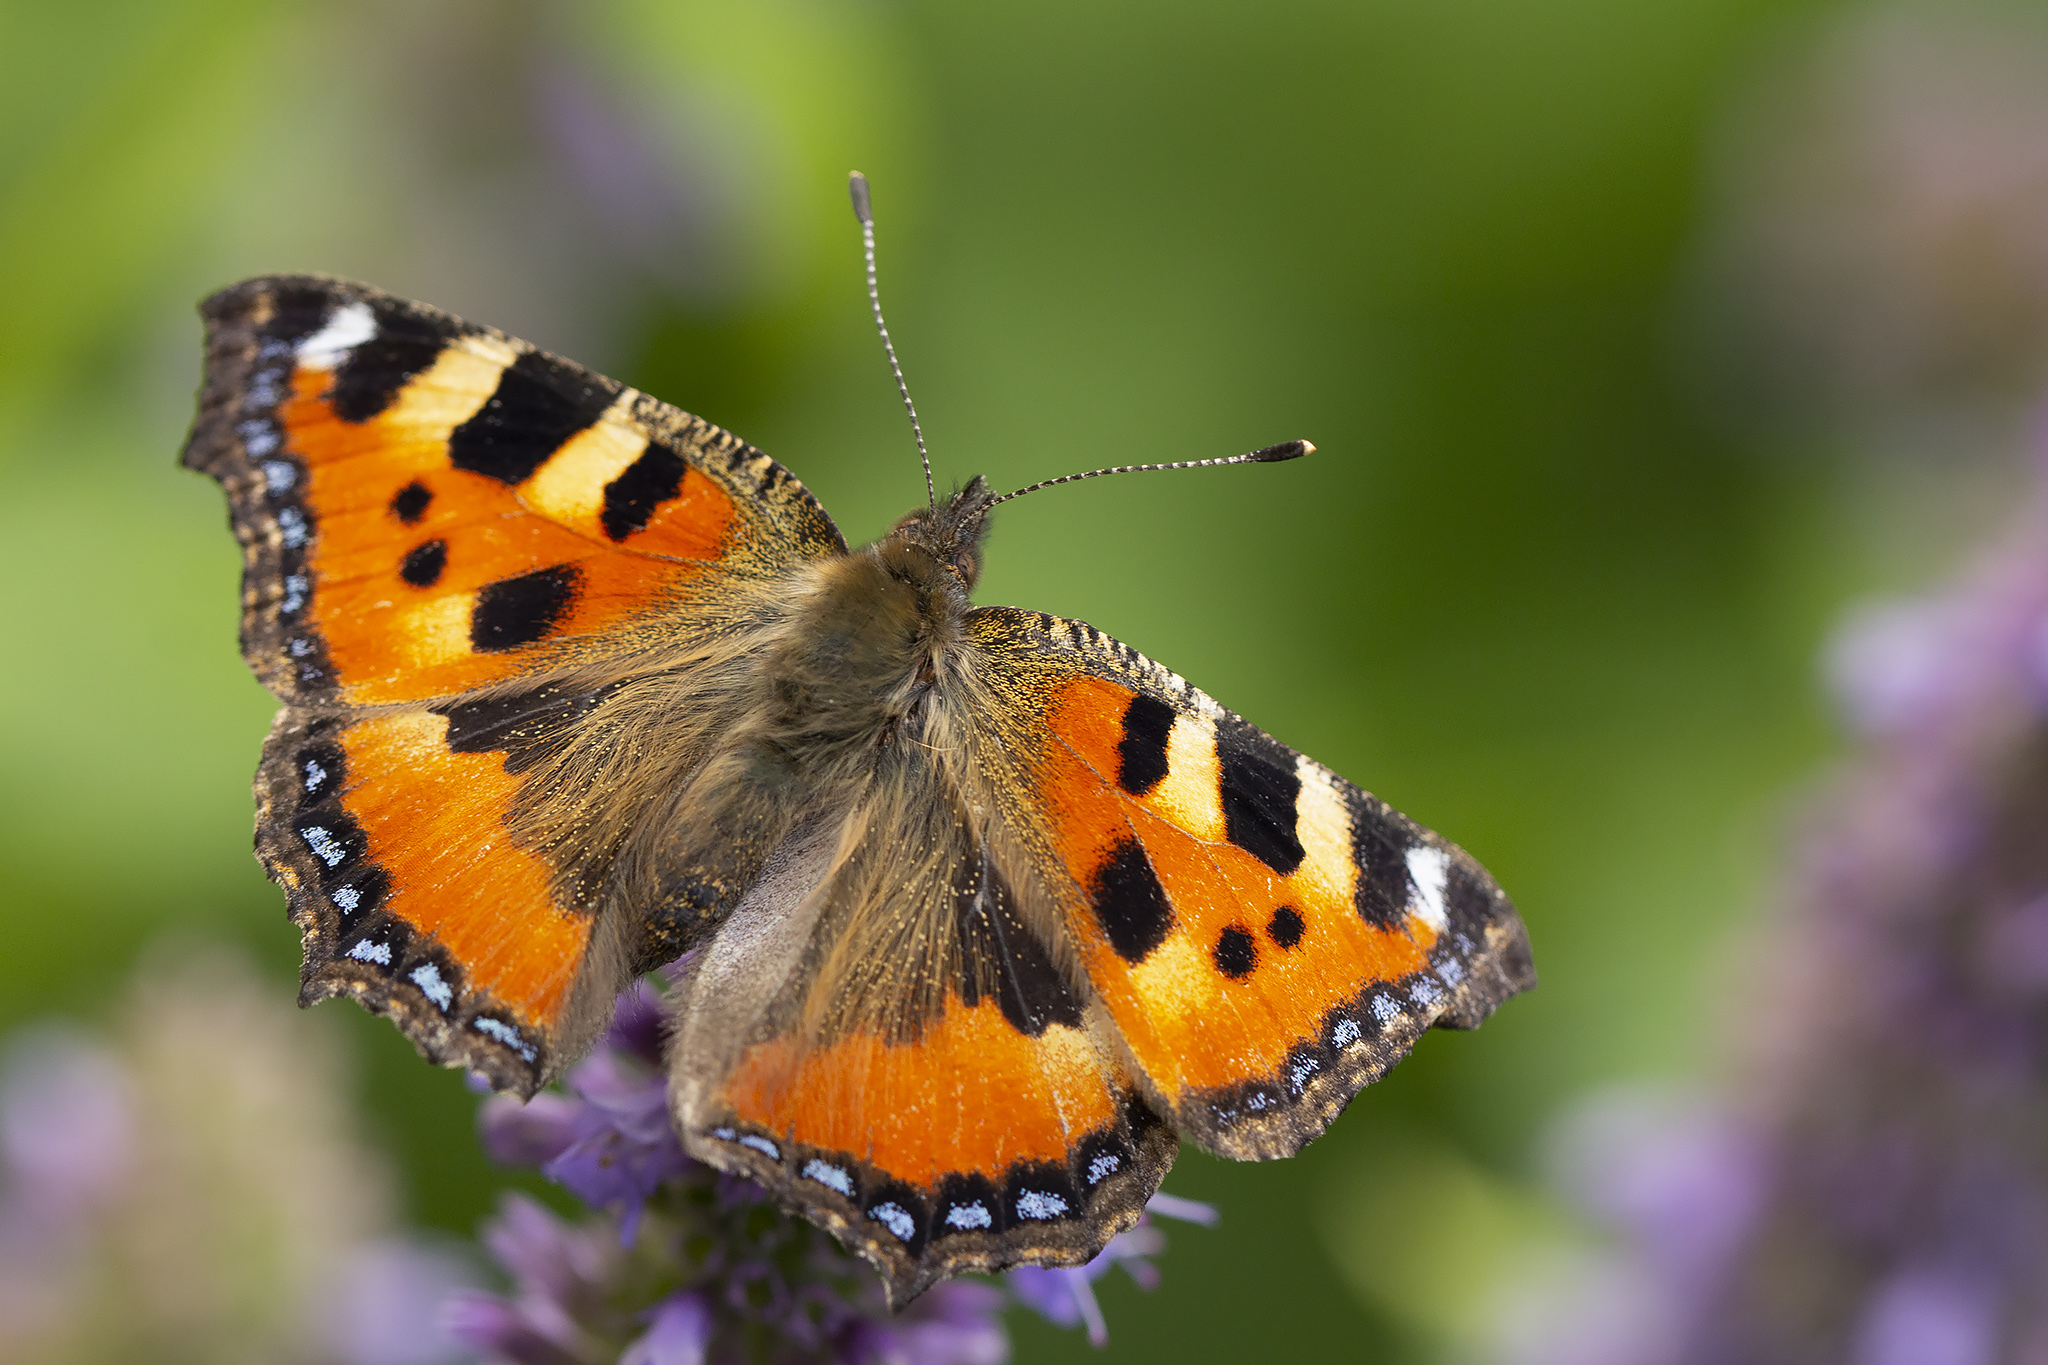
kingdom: Animalia
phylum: Arthropoda
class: Insecta
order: Lepidoptera
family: Nymphalidae
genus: Aglais
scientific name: Aglais urticae
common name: Small tortoiseshell
